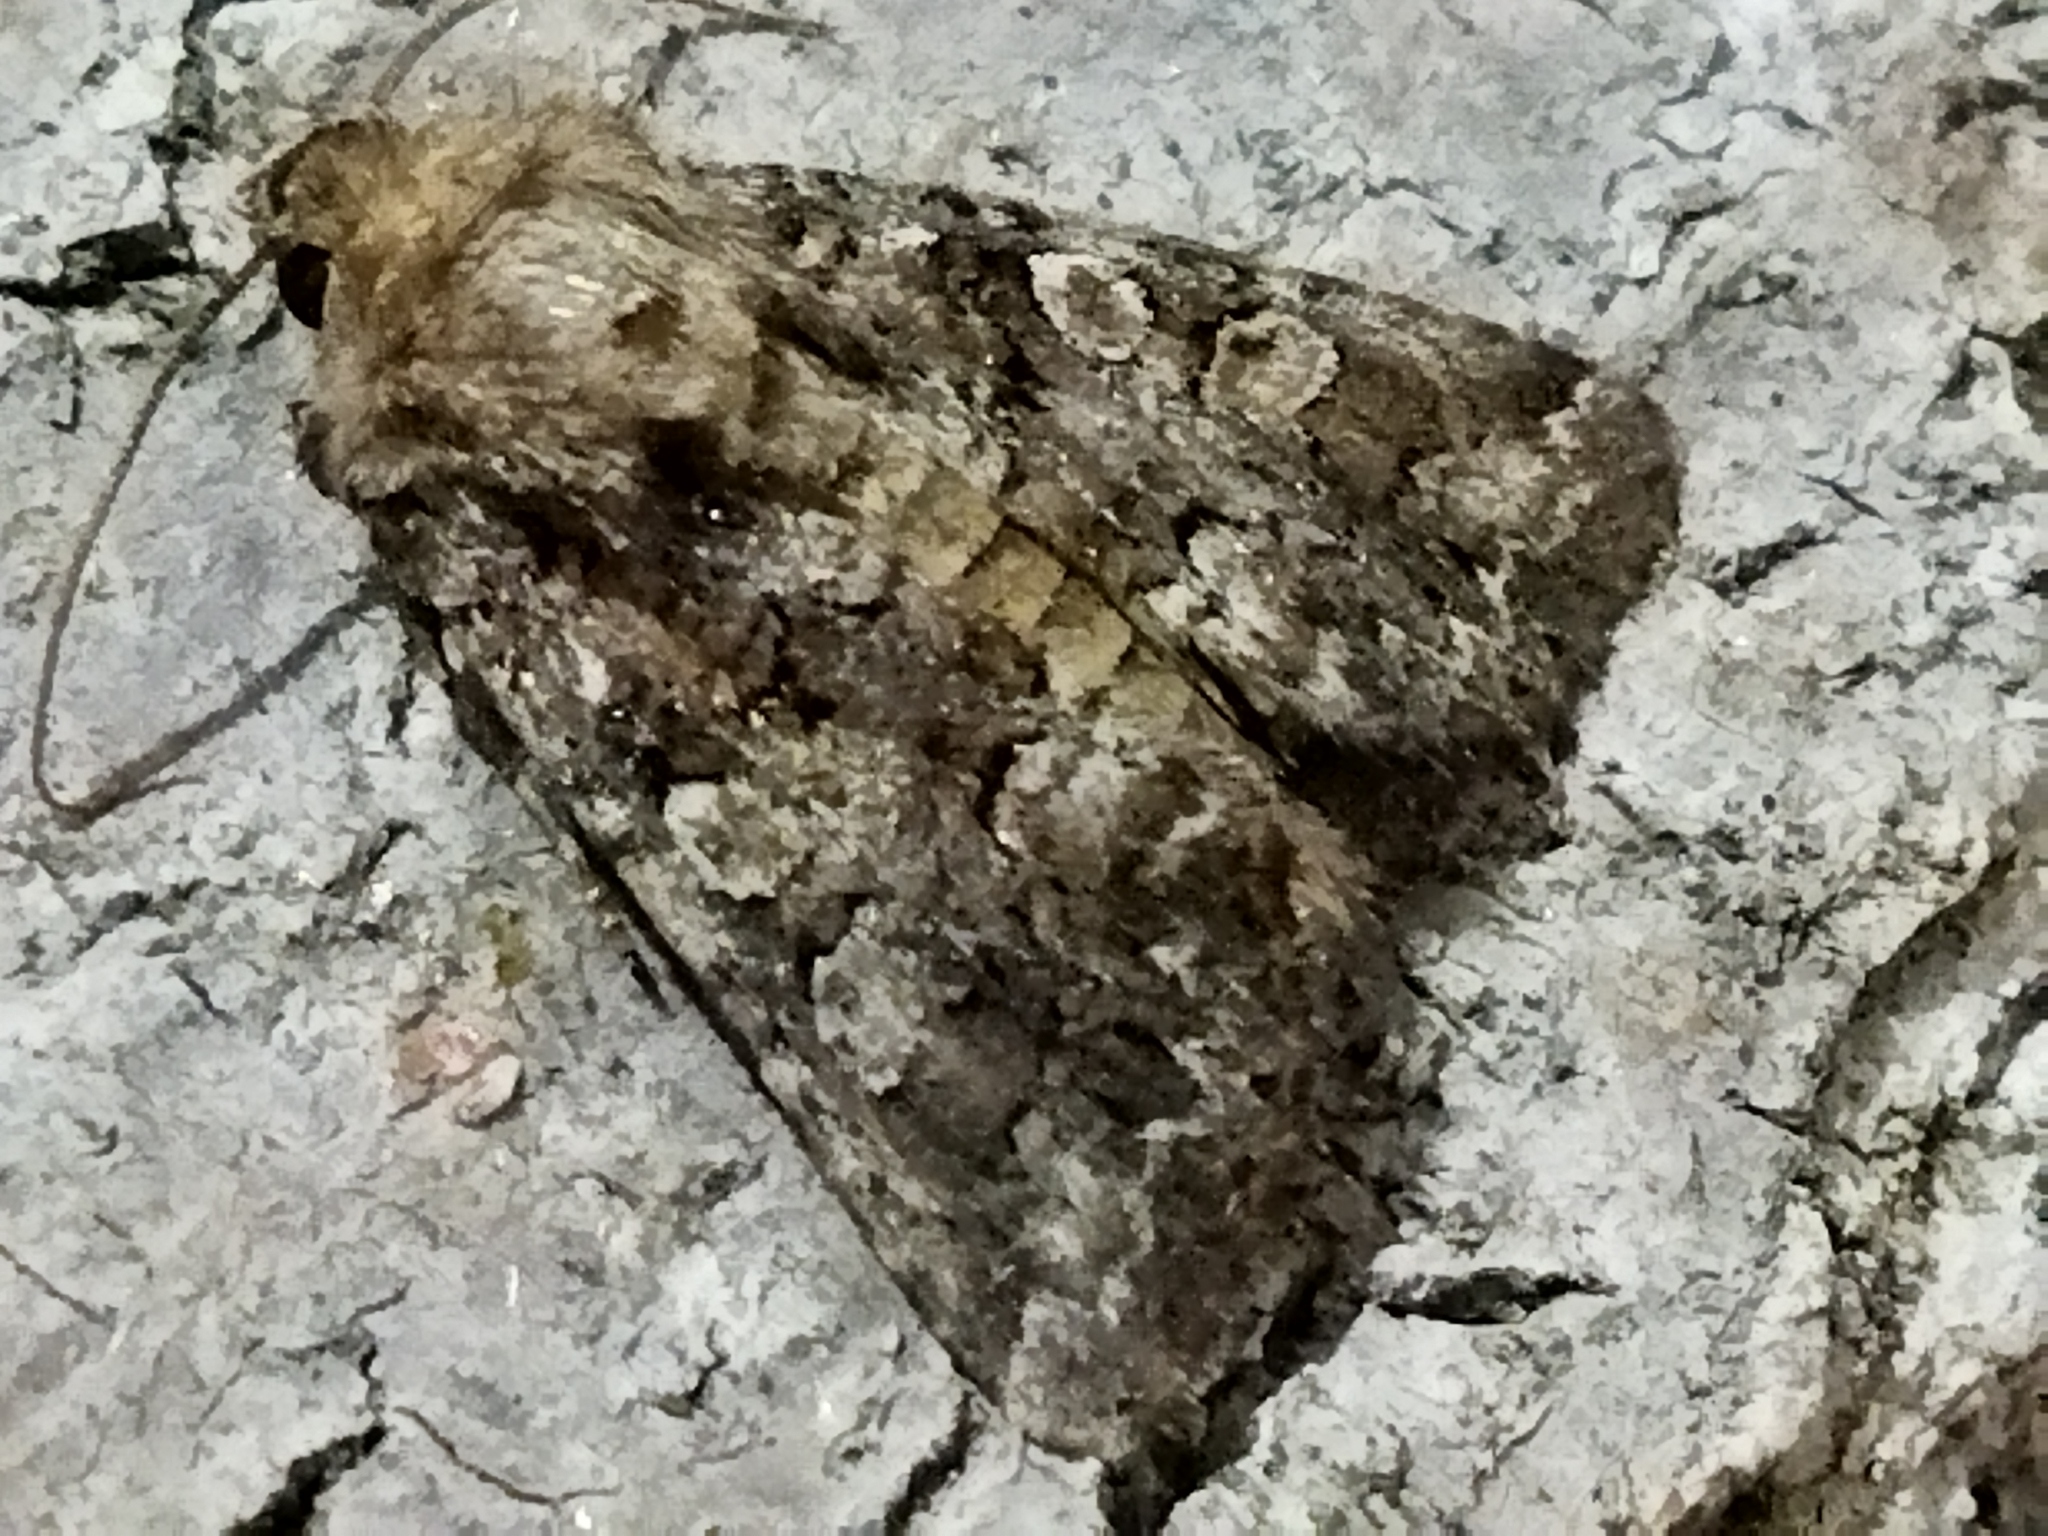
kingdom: Animalia
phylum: Arthropoda
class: Insecta
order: Lepidoptera
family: Noctuidae
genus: Hadena
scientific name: Hadena perplexa
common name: Tawny shears
